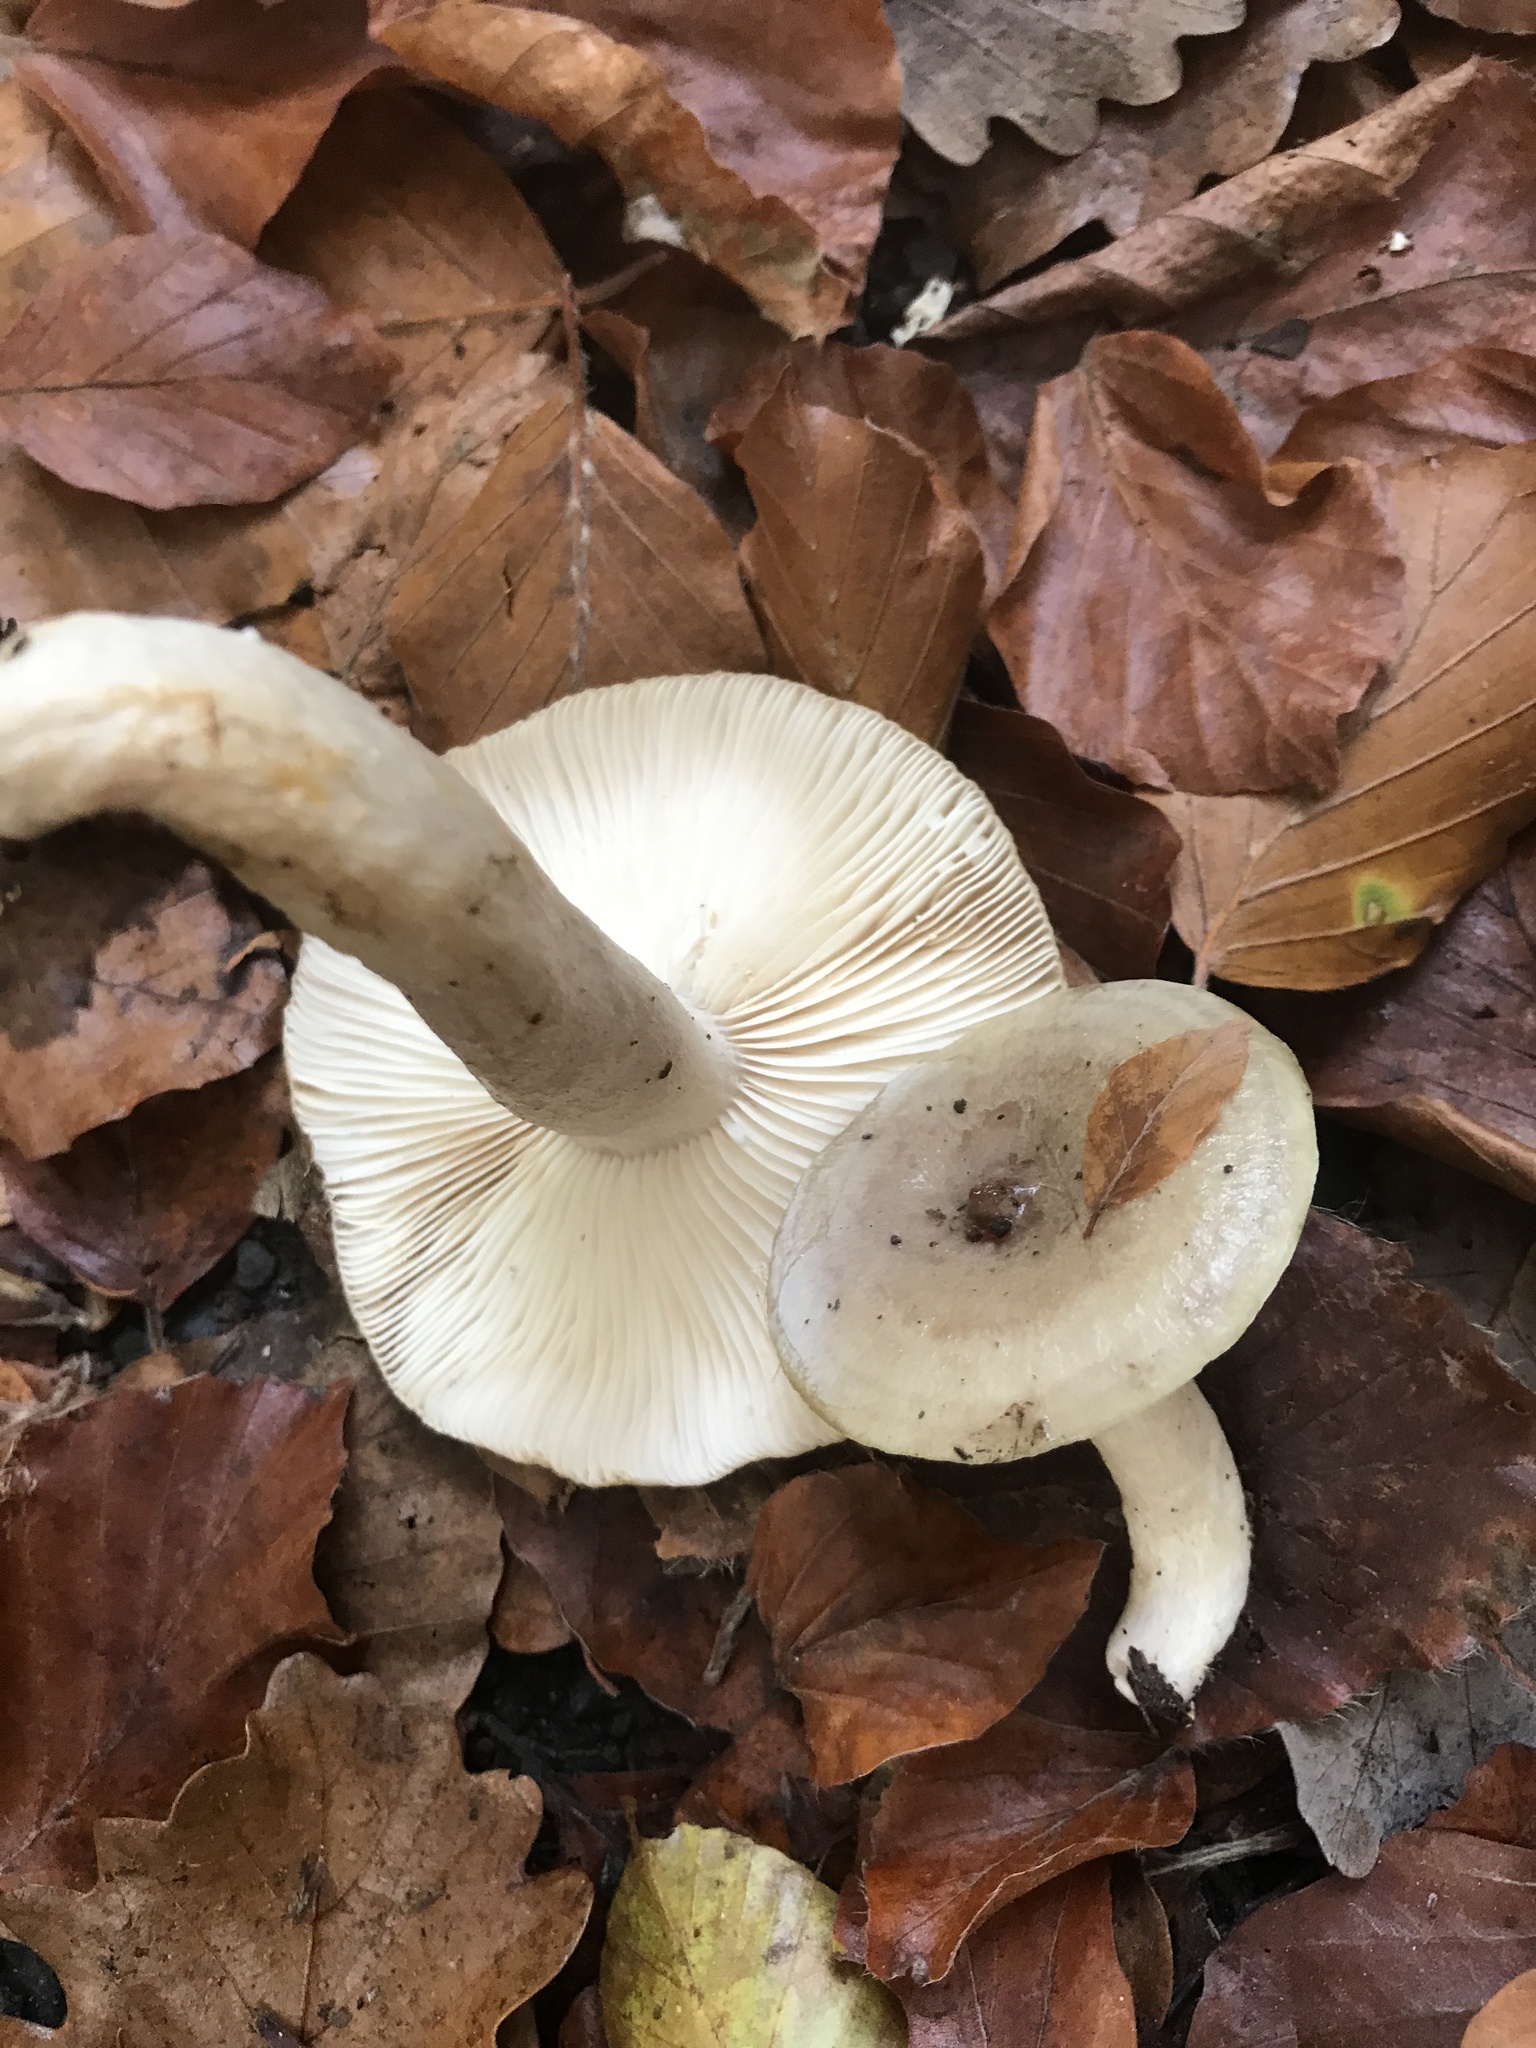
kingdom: Fungi
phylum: Basidiomycota
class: Agaricomycetes
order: Russulales
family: Russulaceae
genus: Lactarius
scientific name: Lactarius blennius
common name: Beech milkcap
